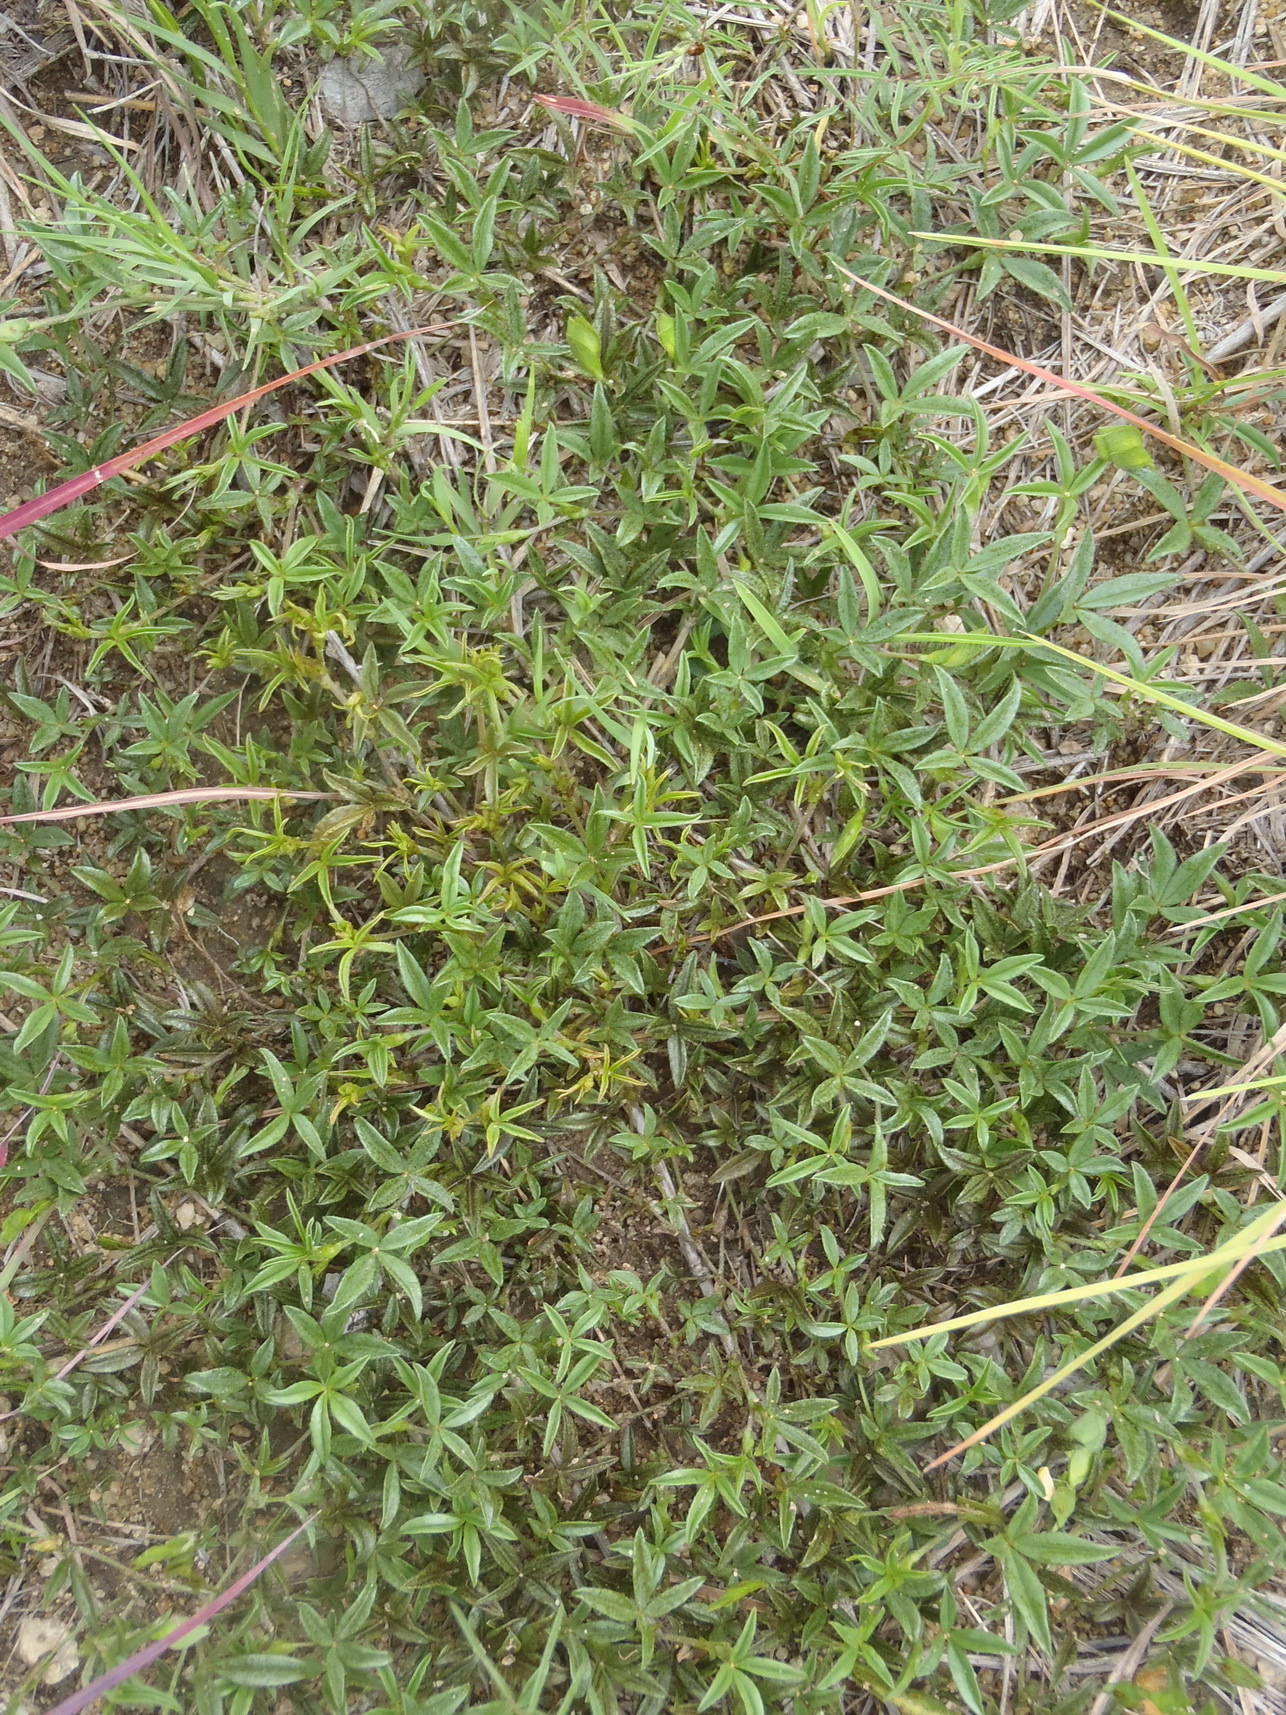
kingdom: Plantae
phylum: Tracheophyta
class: Magnoliopsida
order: Fabales
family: Fabaceae
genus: Zornia
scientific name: Zornia milneana
